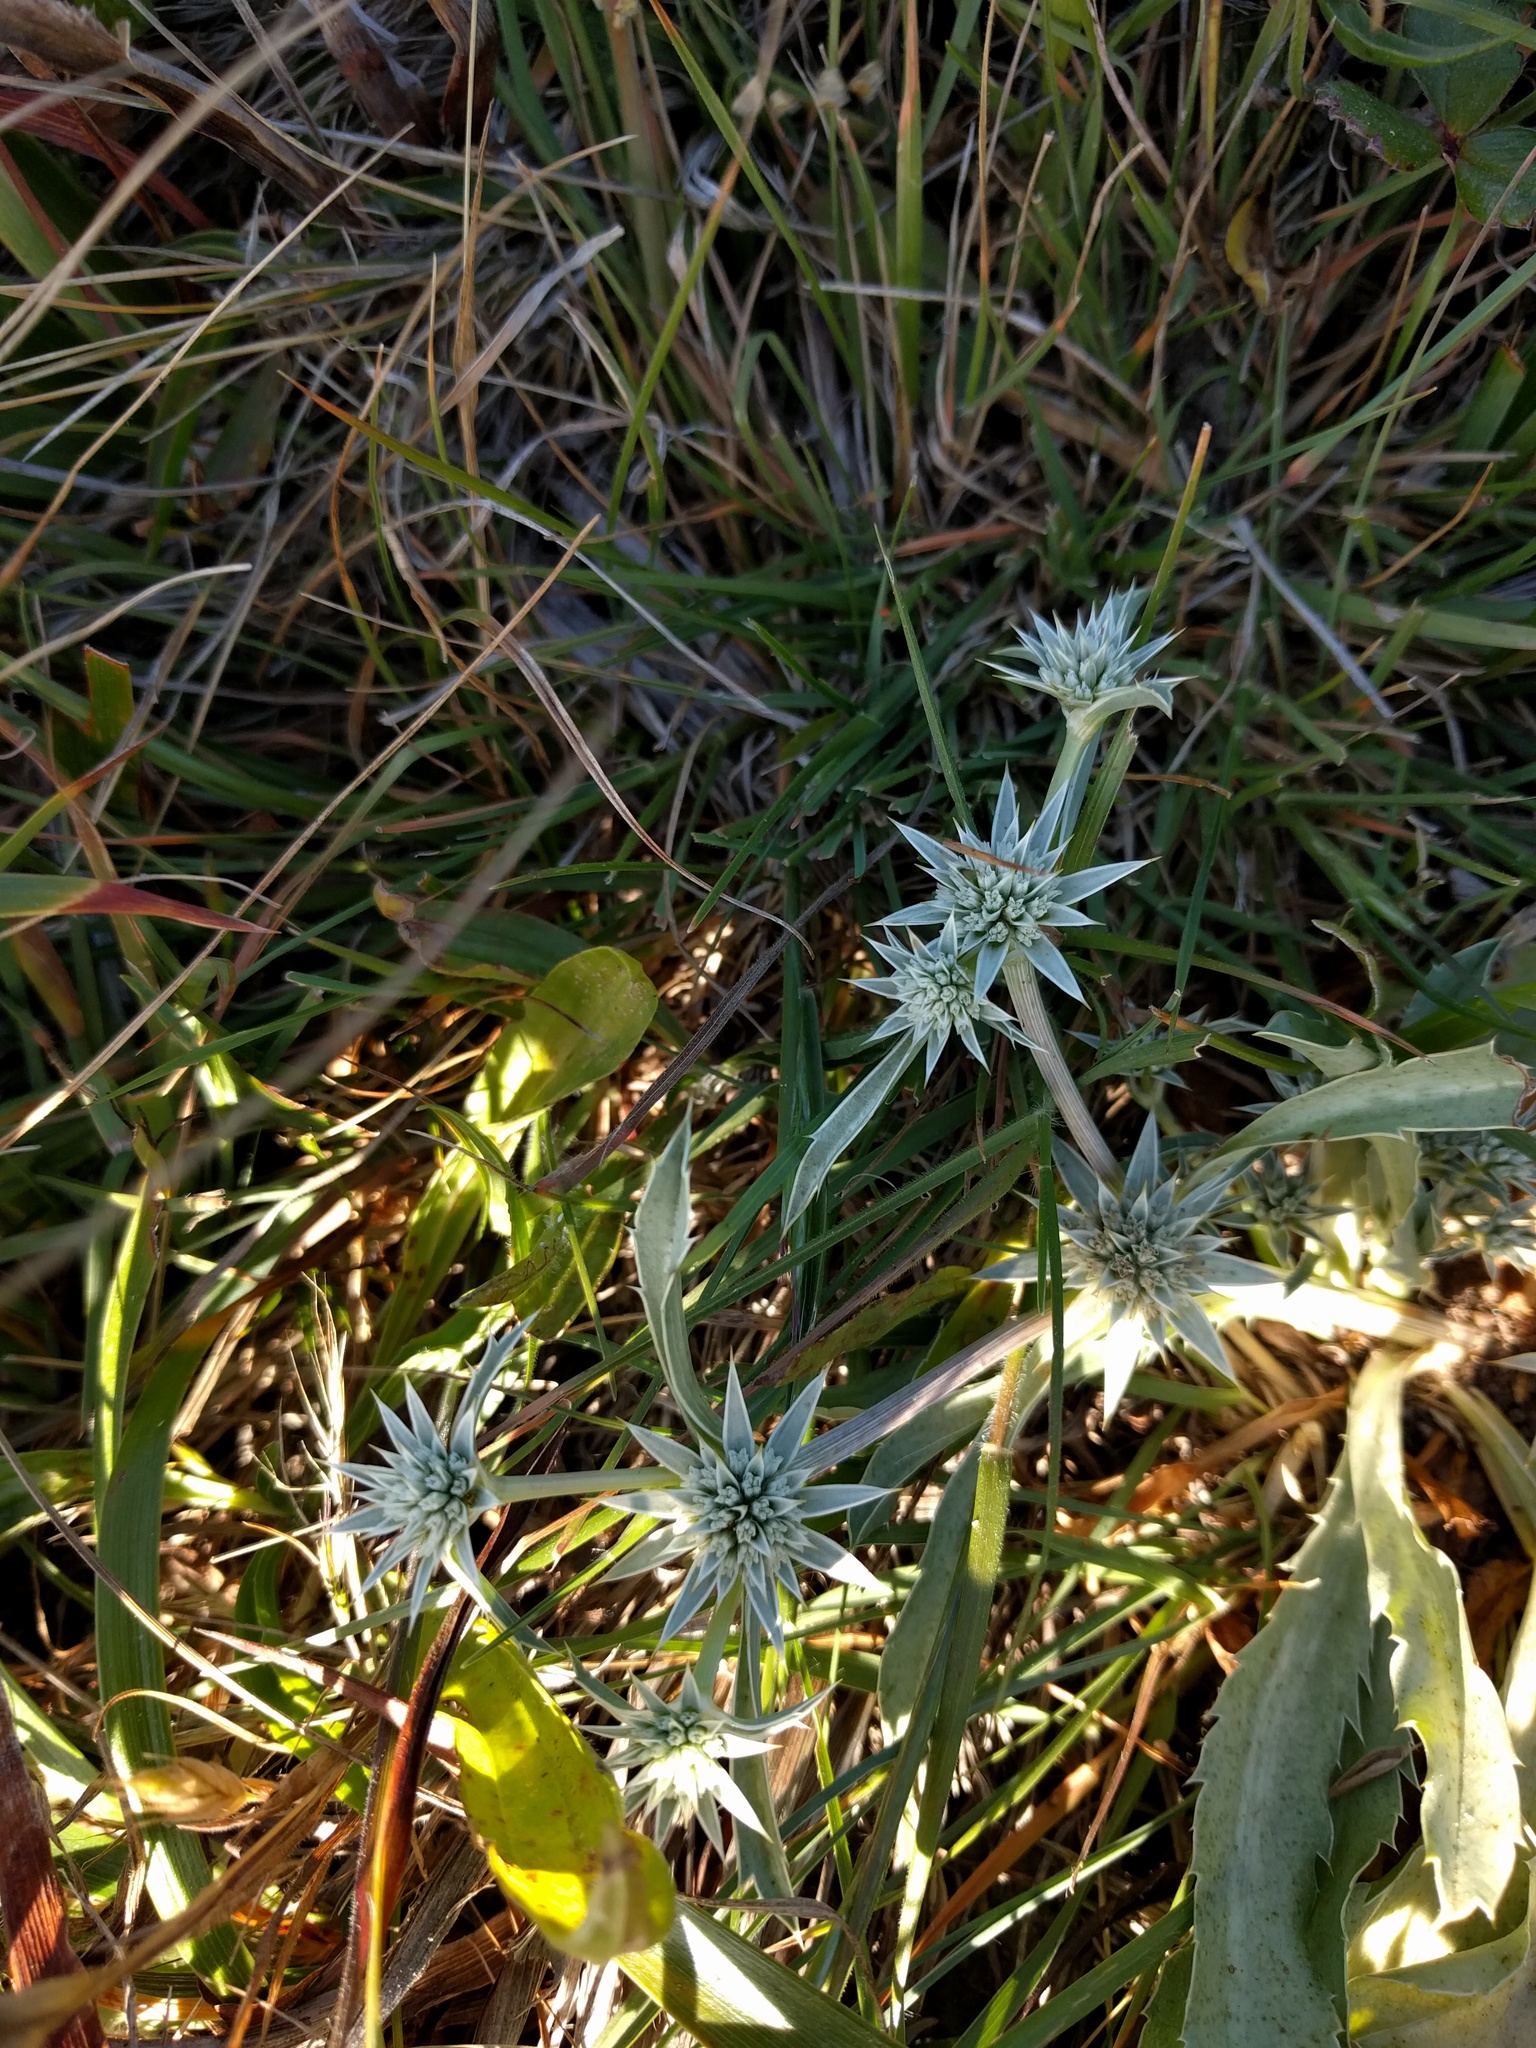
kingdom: Plantae
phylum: Tracheophyta
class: Magnoliopsida
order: Apiales
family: Apiaceae
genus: Eryngium
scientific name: Eryngium armatum
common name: Coyote thistle
